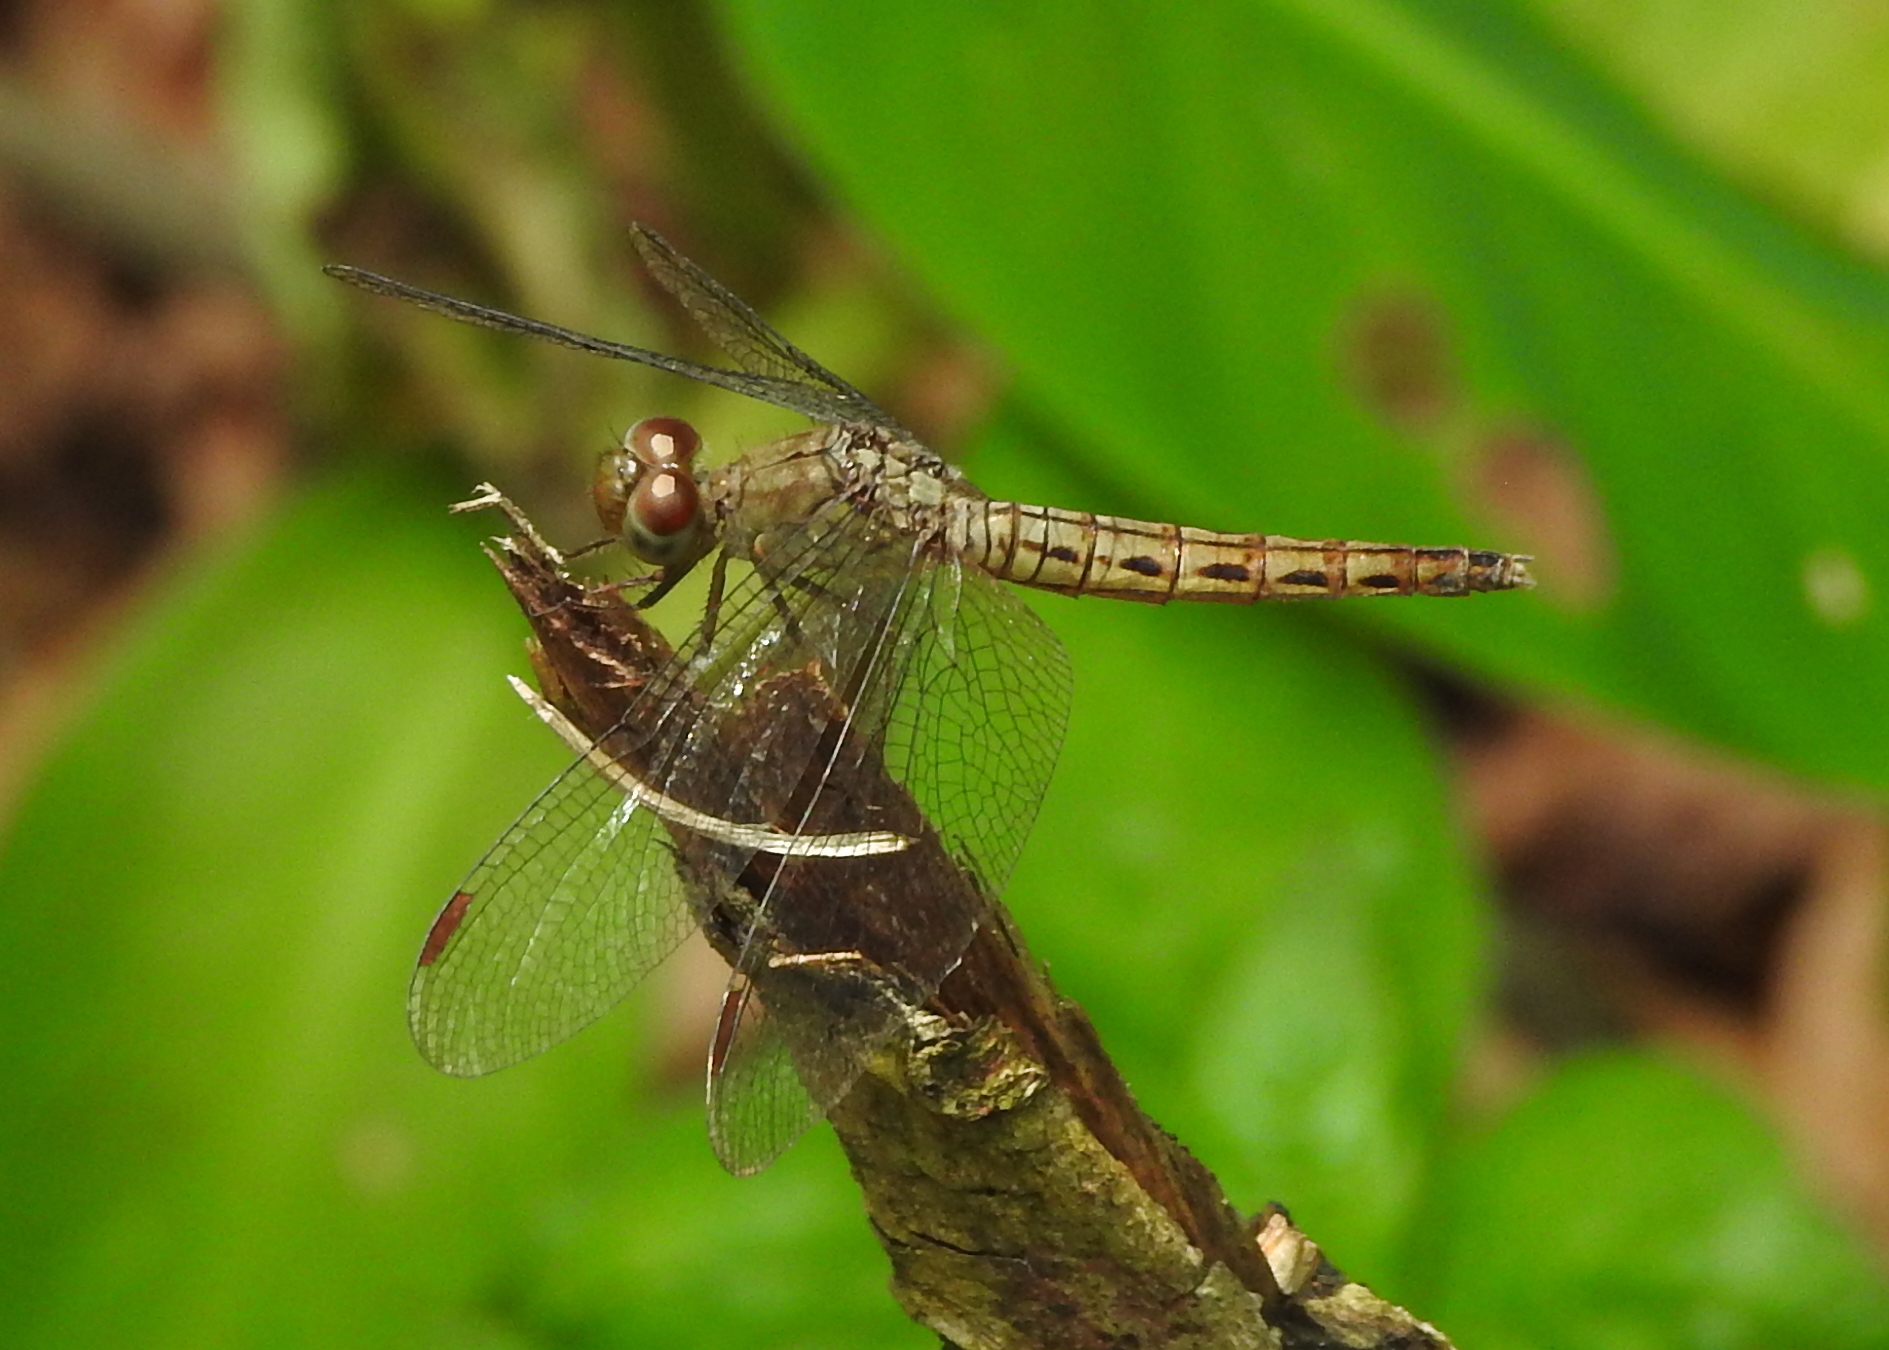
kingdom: Animalia
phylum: Arthropoda
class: Insecta
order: Odonata
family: Libellulidae
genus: Neurothemis
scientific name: Neurothemis fluctuans
